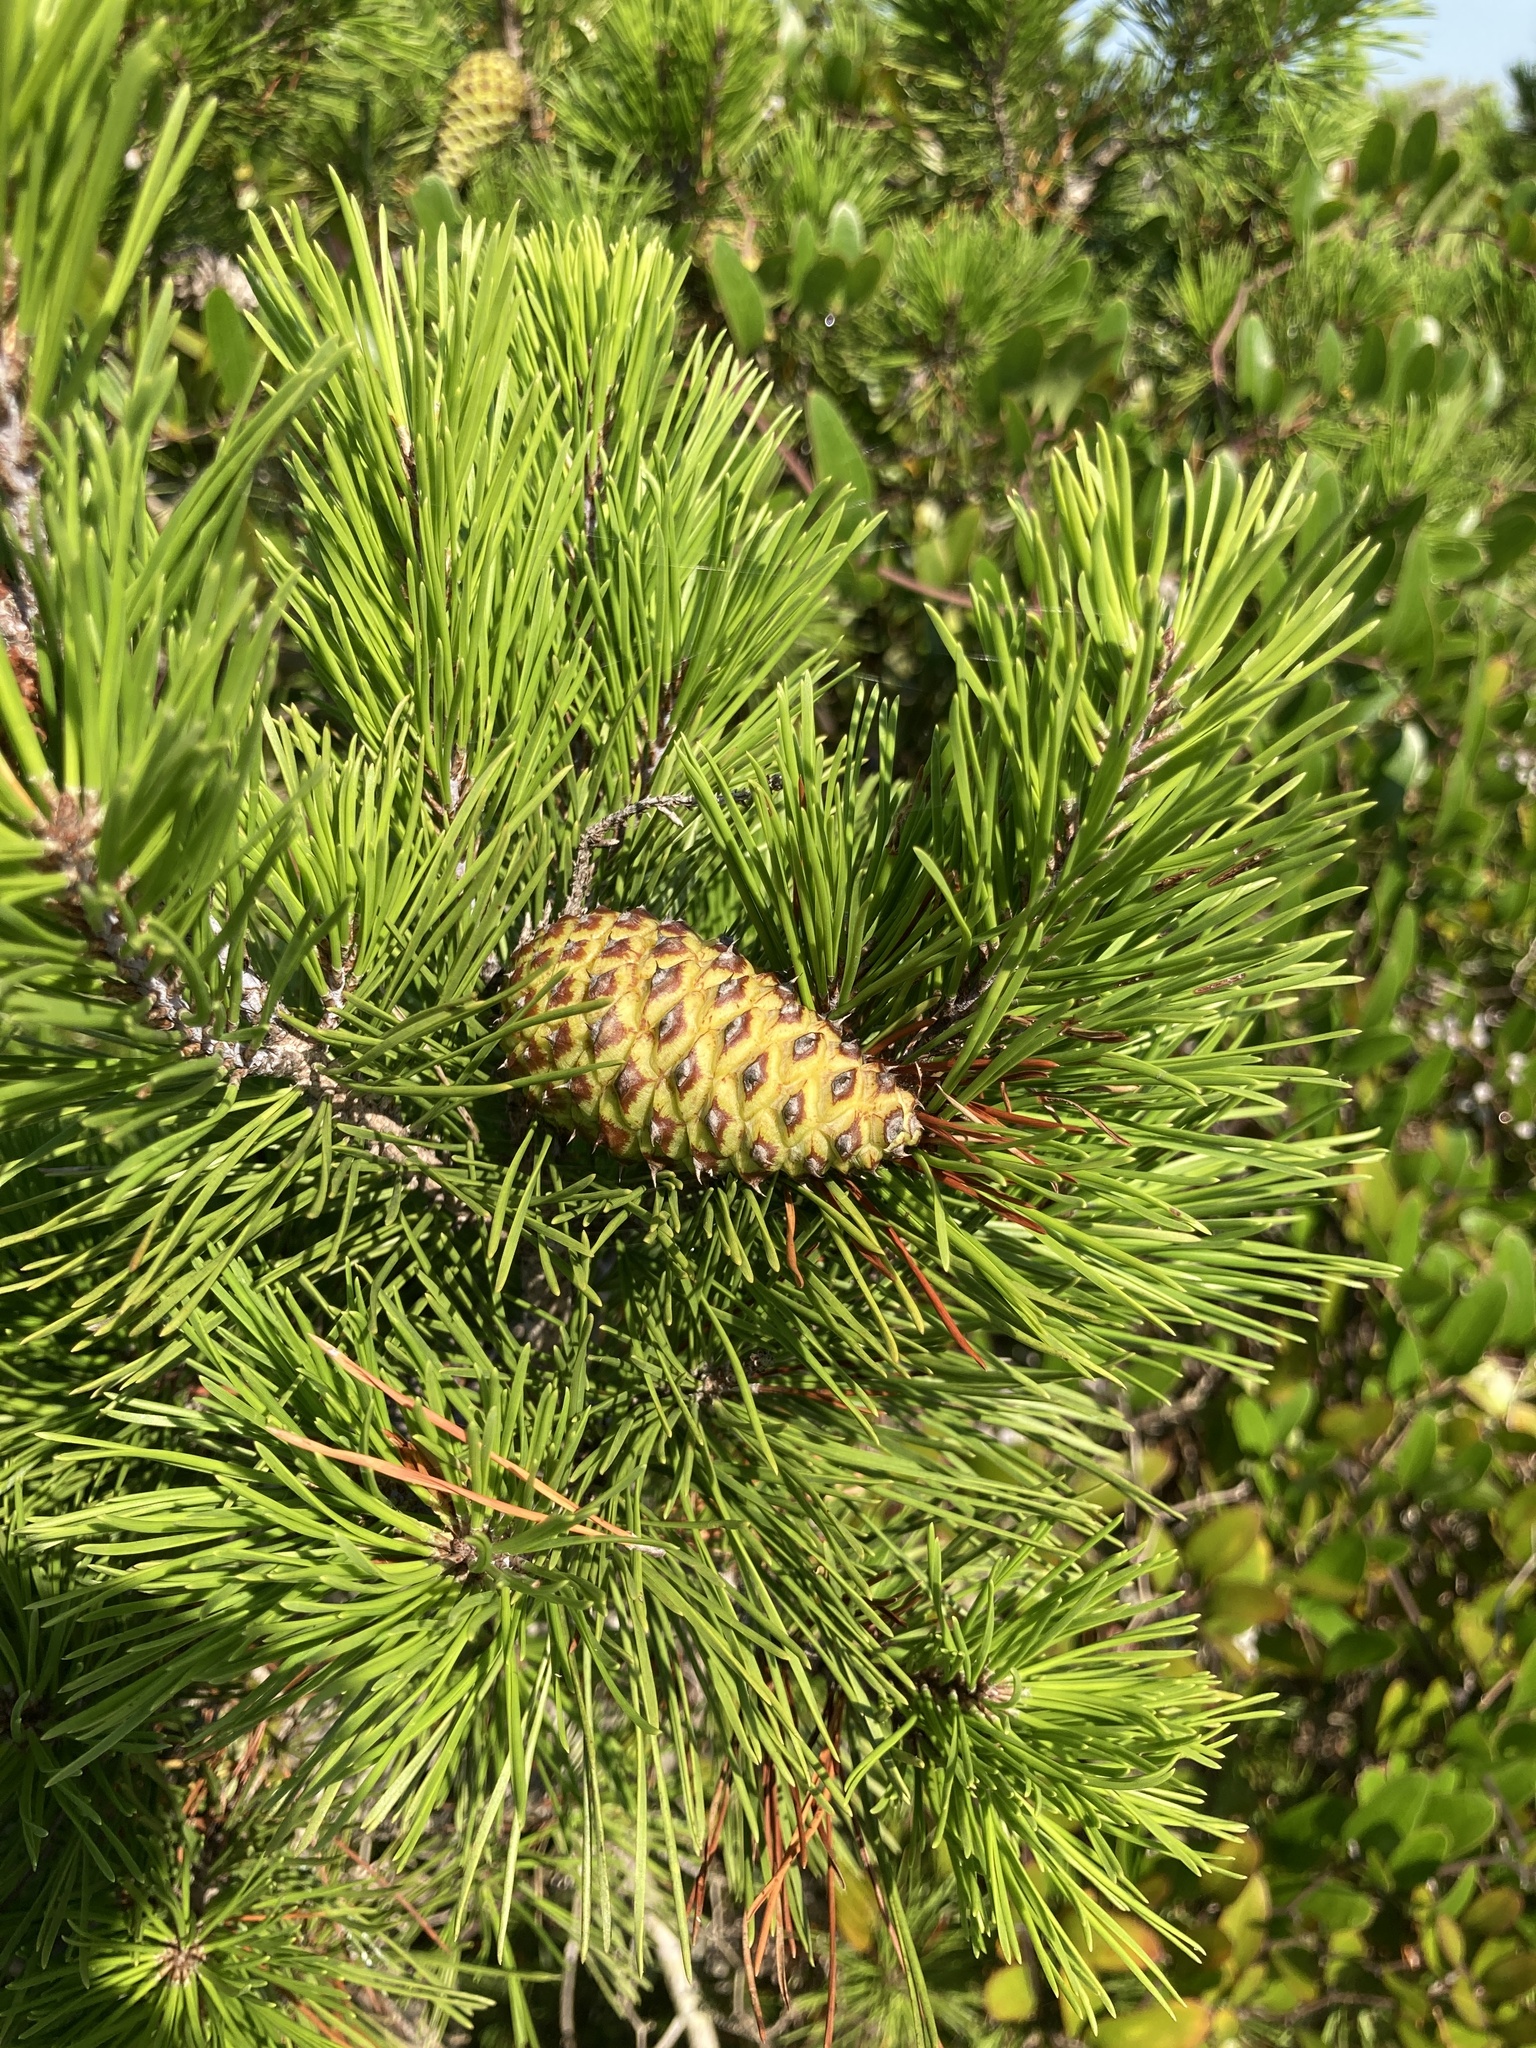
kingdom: Plantae
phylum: Tracheophyta
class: Pinopsida
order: Pinales
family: Pinaceae
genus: Pinus
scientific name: Pinus clausa
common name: Sand pine
